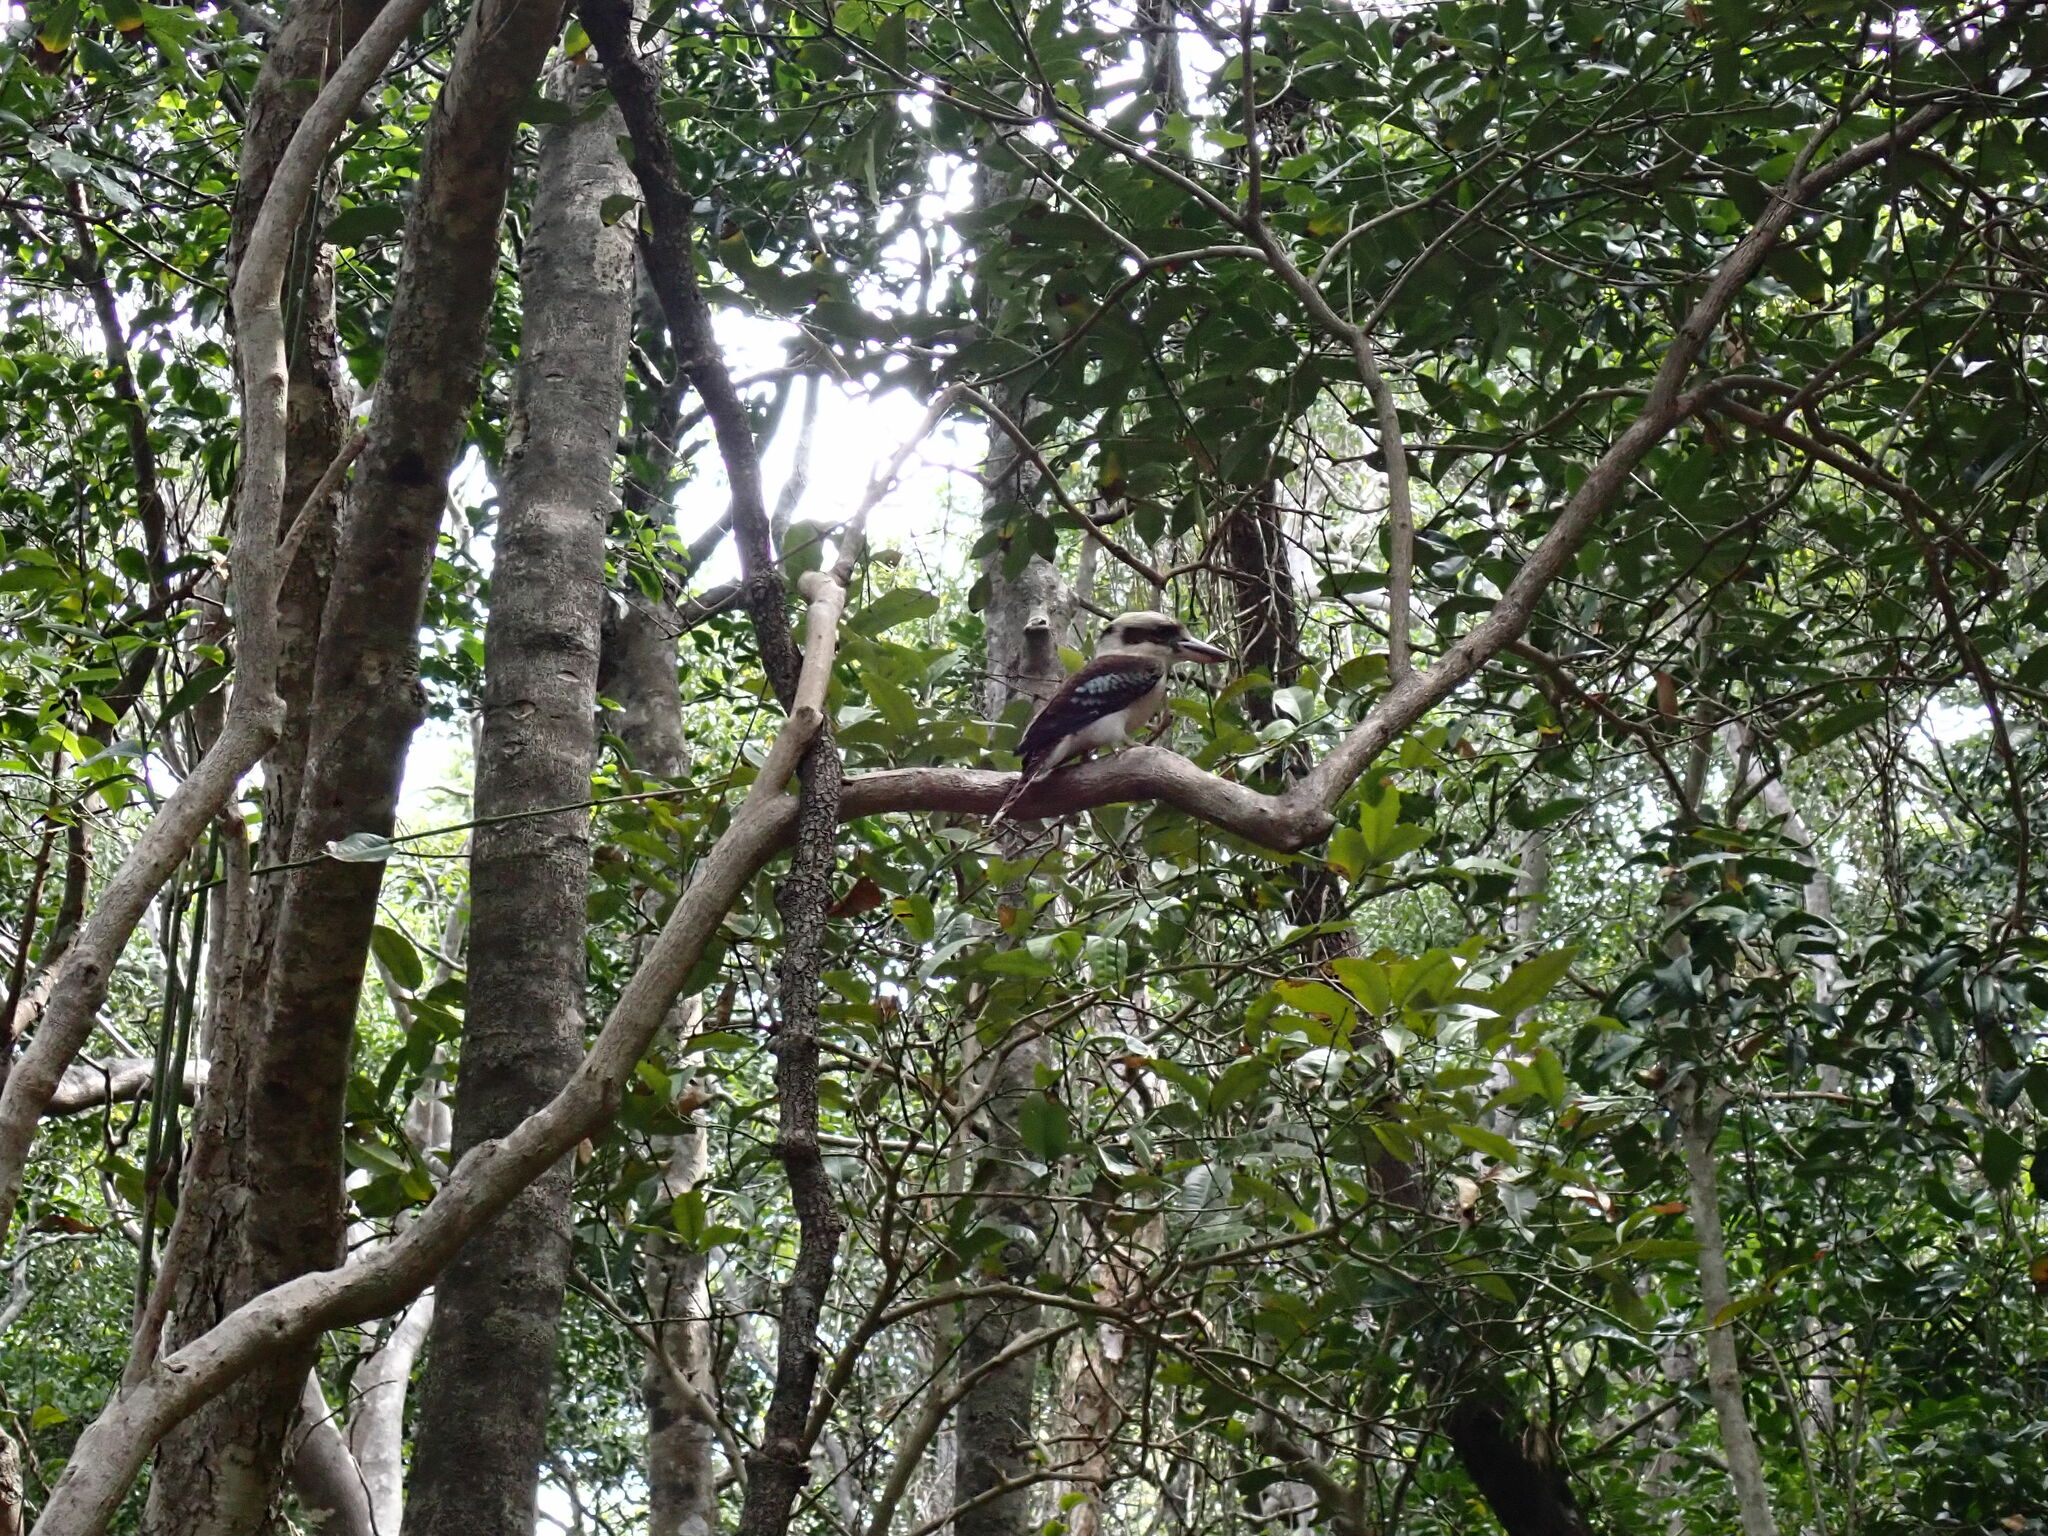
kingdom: Animalia
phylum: Chordata
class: Aves
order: Coraciiformes
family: Alcedinidae
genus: Dacelo
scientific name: Dacelo novaeguineae
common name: Laughing kookaburra
